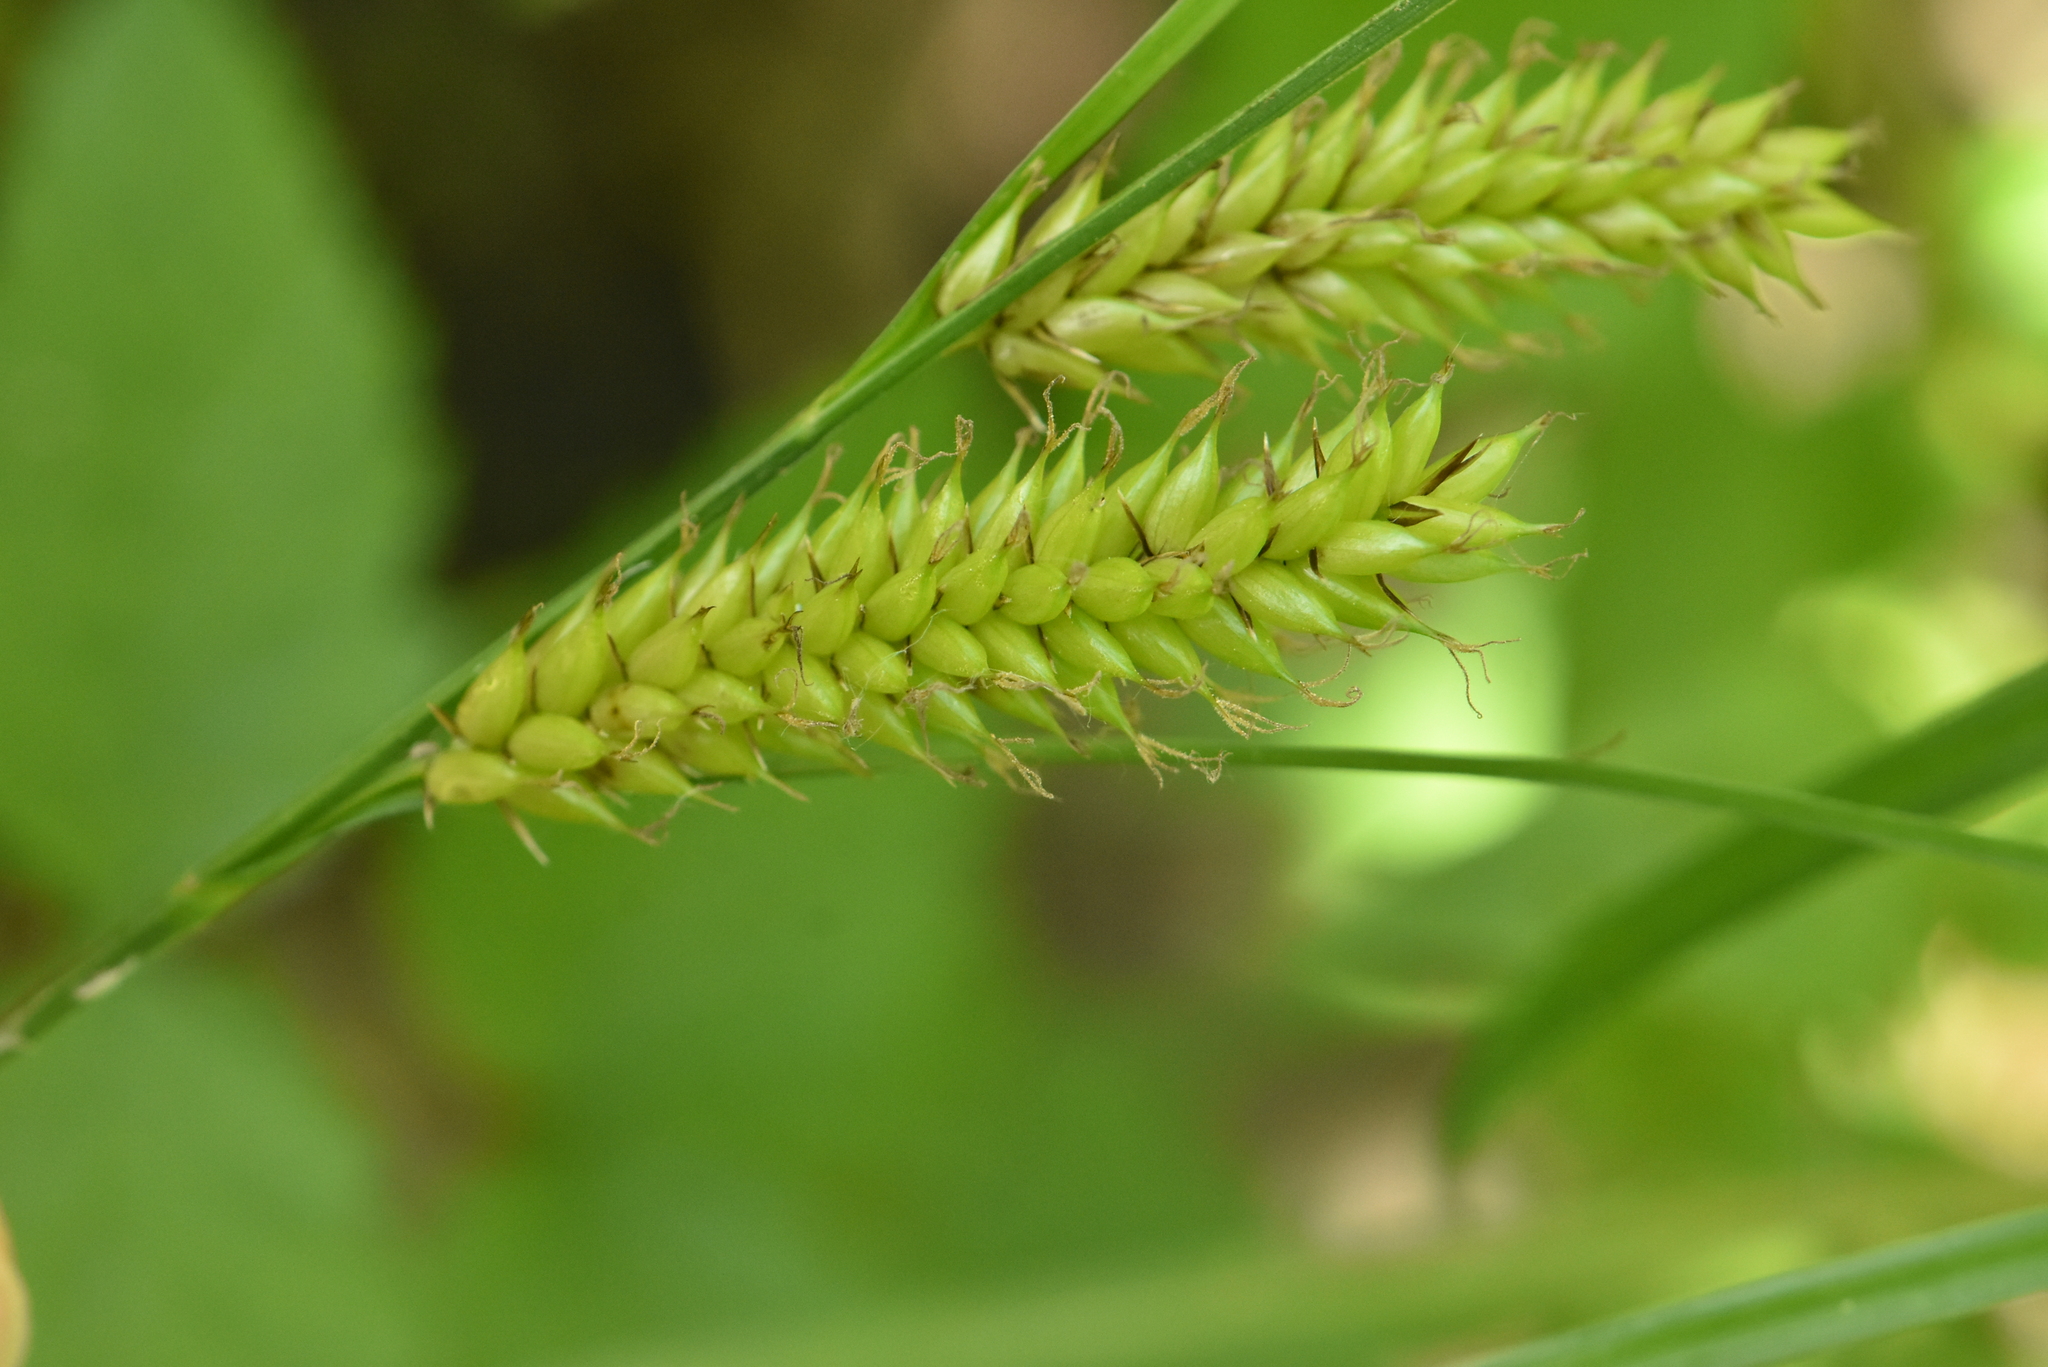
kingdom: Plantae
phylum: Tracheophyta
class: Liliopsida
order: Poales
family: Cyperaceae
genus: Carex
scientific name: Carex vesicaria
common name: Bladder-sedge
